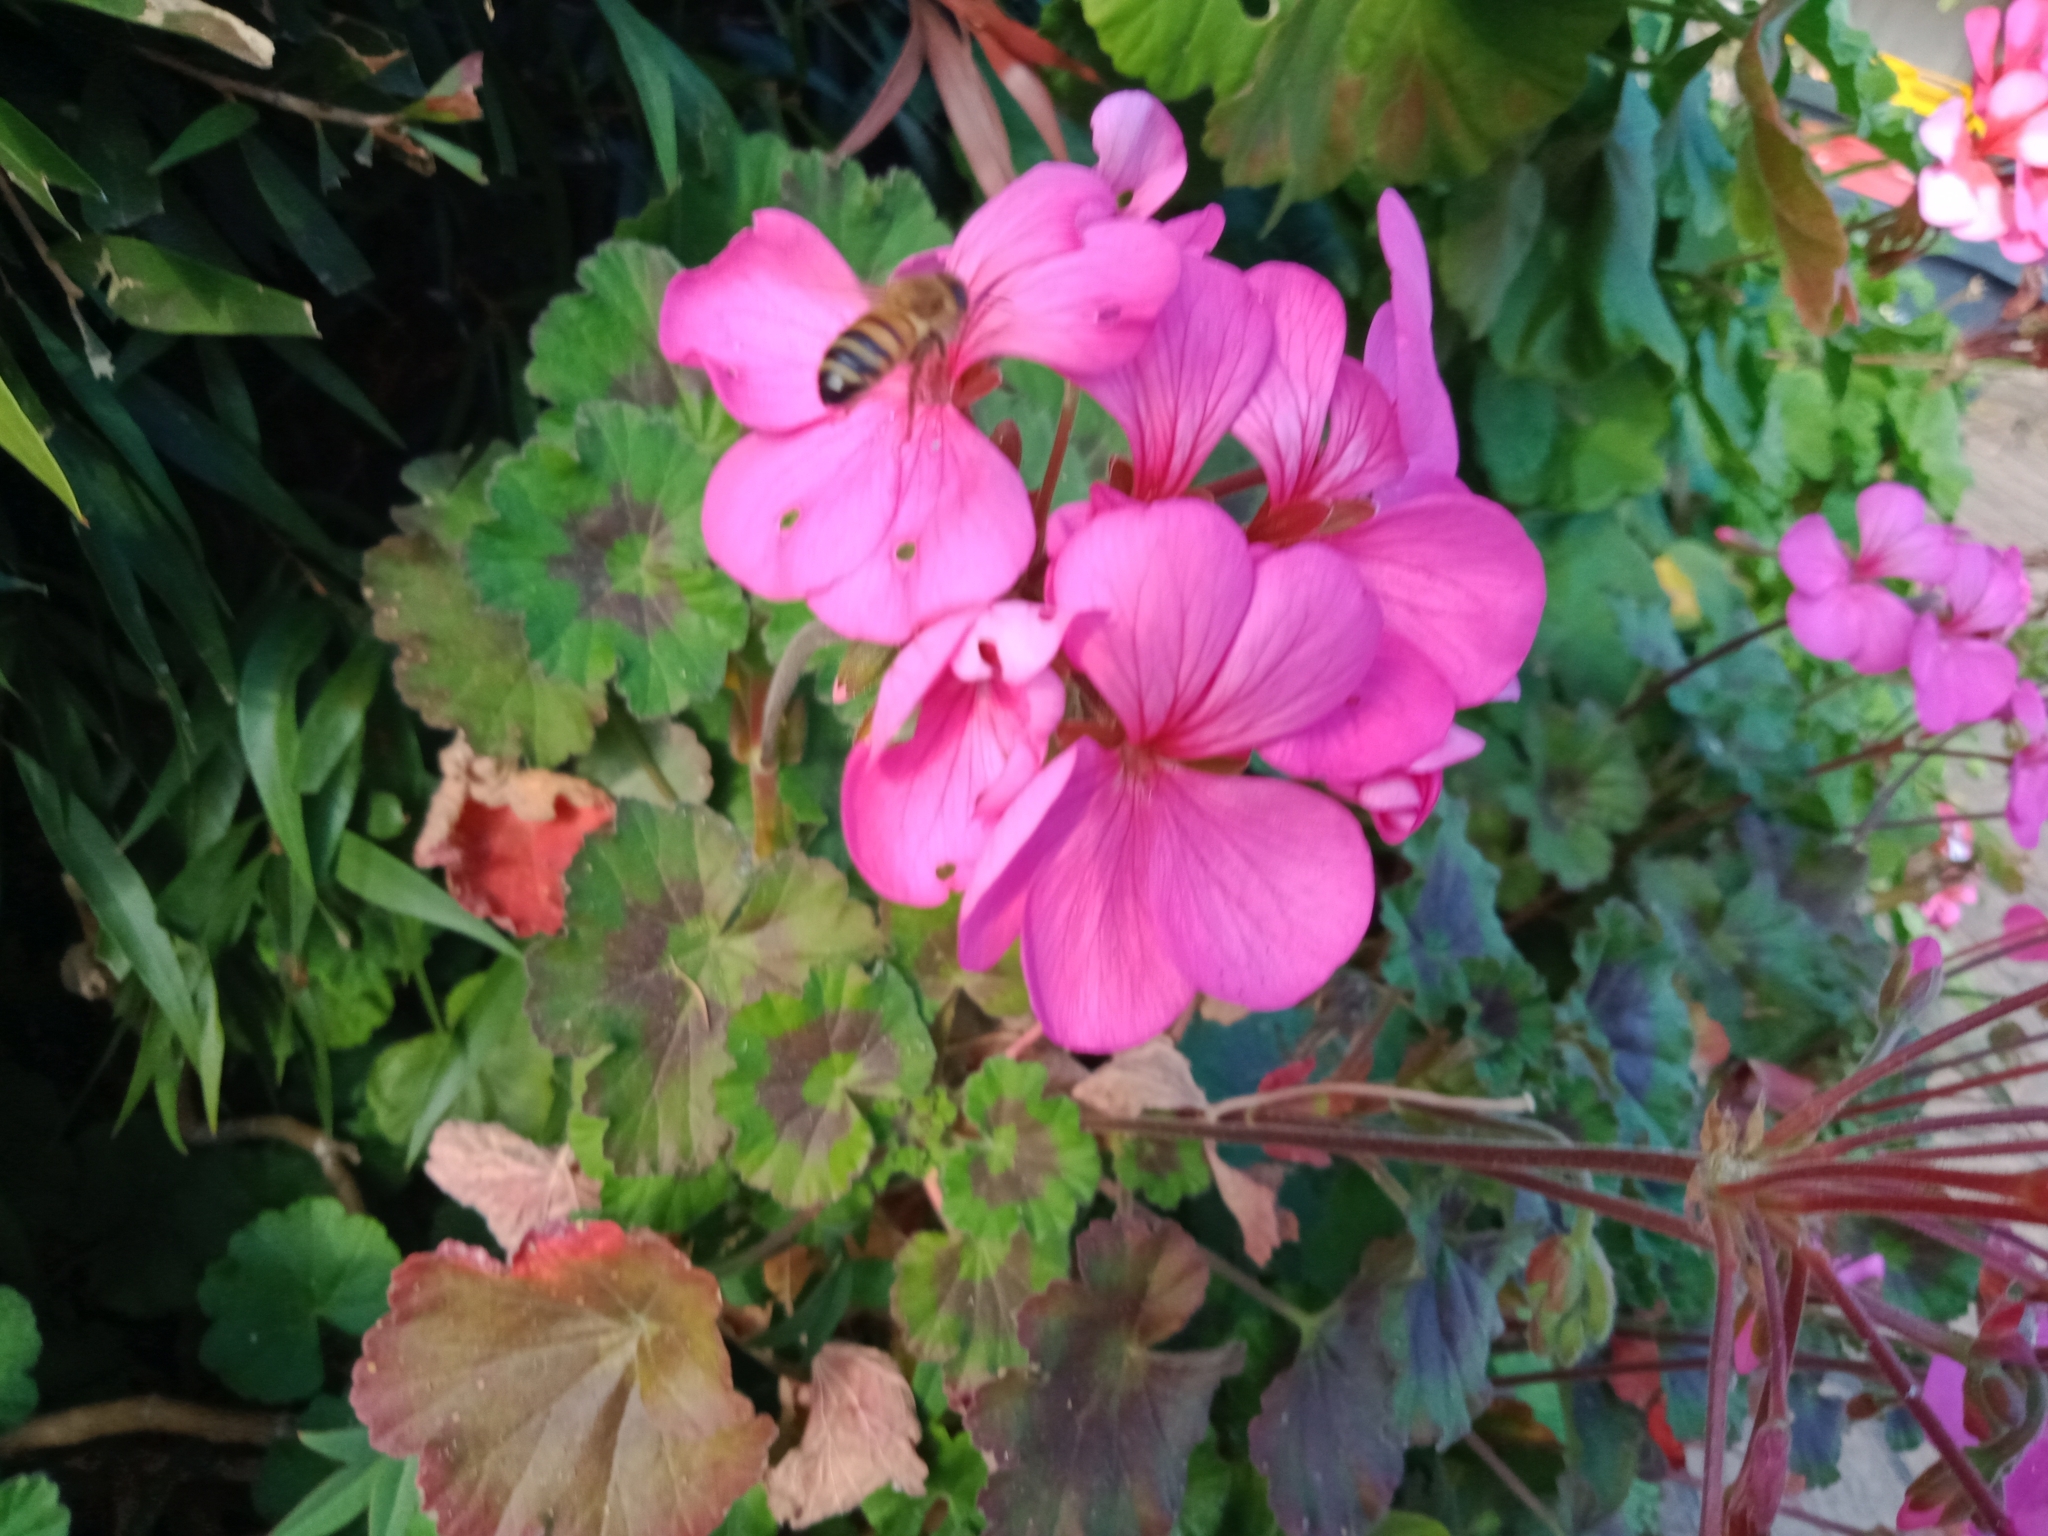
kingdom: Animalia
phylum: Arthropoda
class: Insecta
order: Hymenoptera
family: Apidae
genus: Apis
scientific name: Apis mellifera
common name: Honey bee
